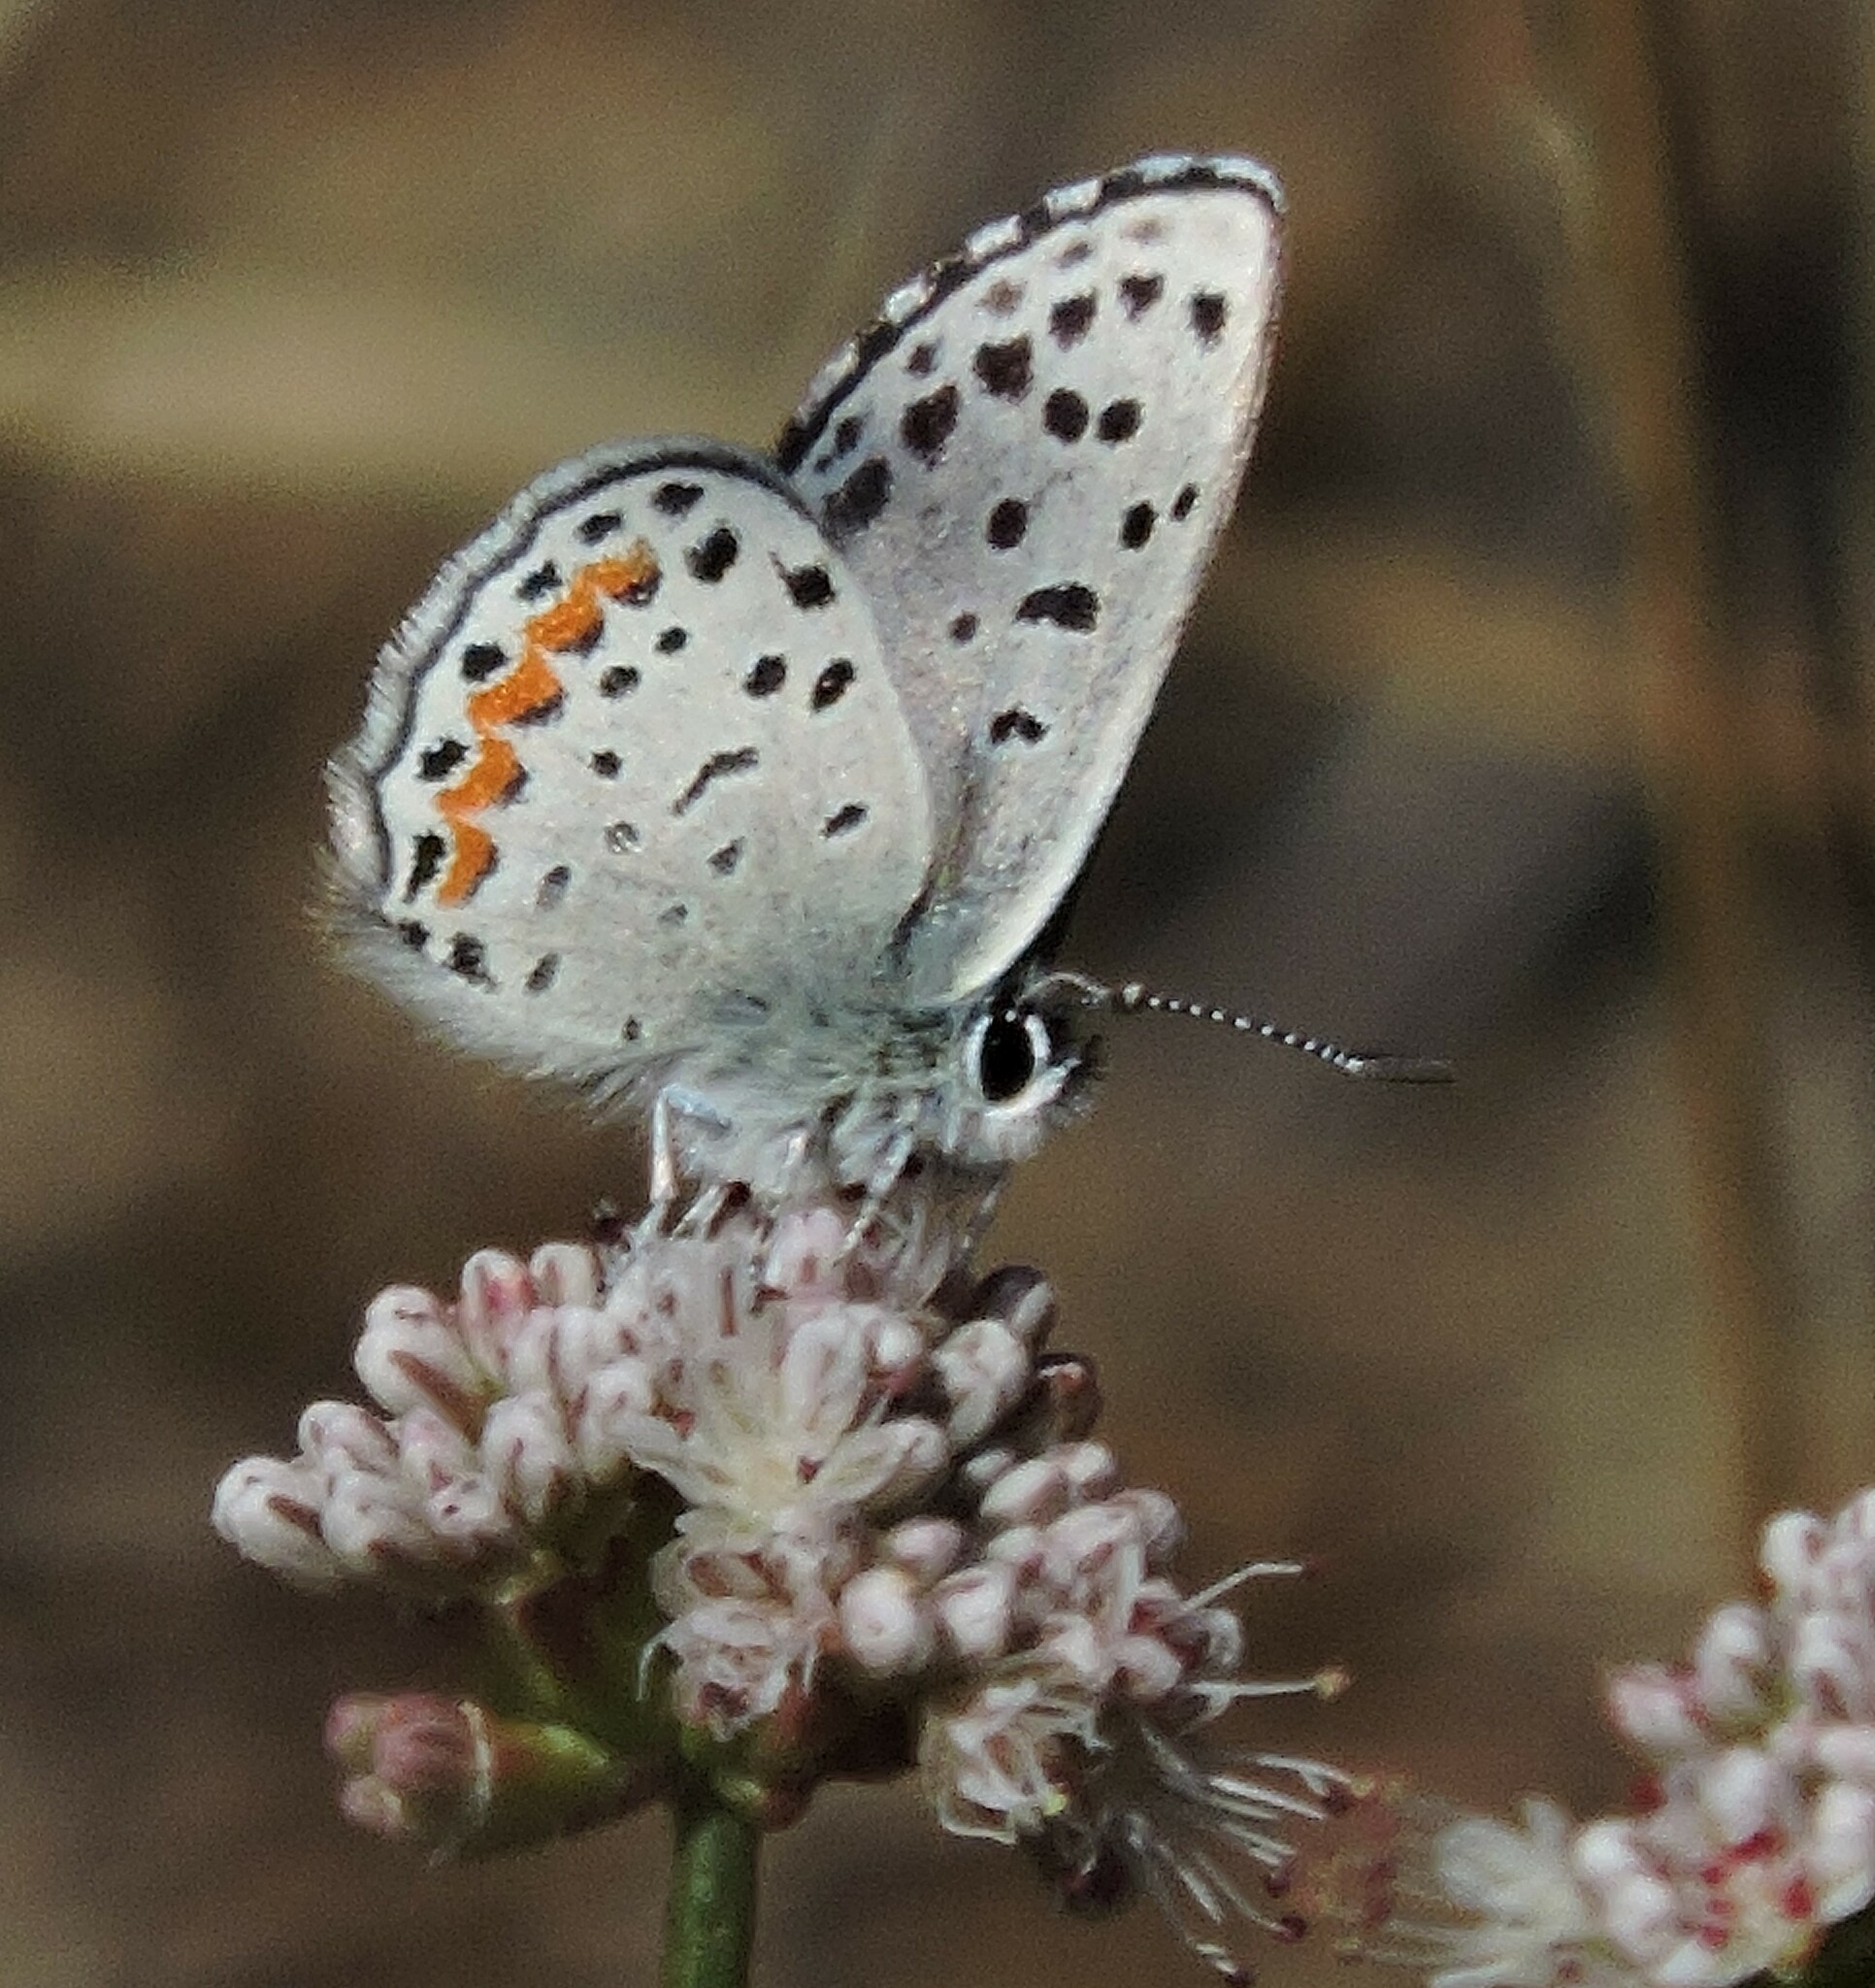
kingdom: Animalia
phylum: Arthropoda
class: Insecta
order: Lepidoptera
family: Lycaenidae
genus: Euphilotes
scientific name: Euphilotes enoptes
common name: Dotted blue
